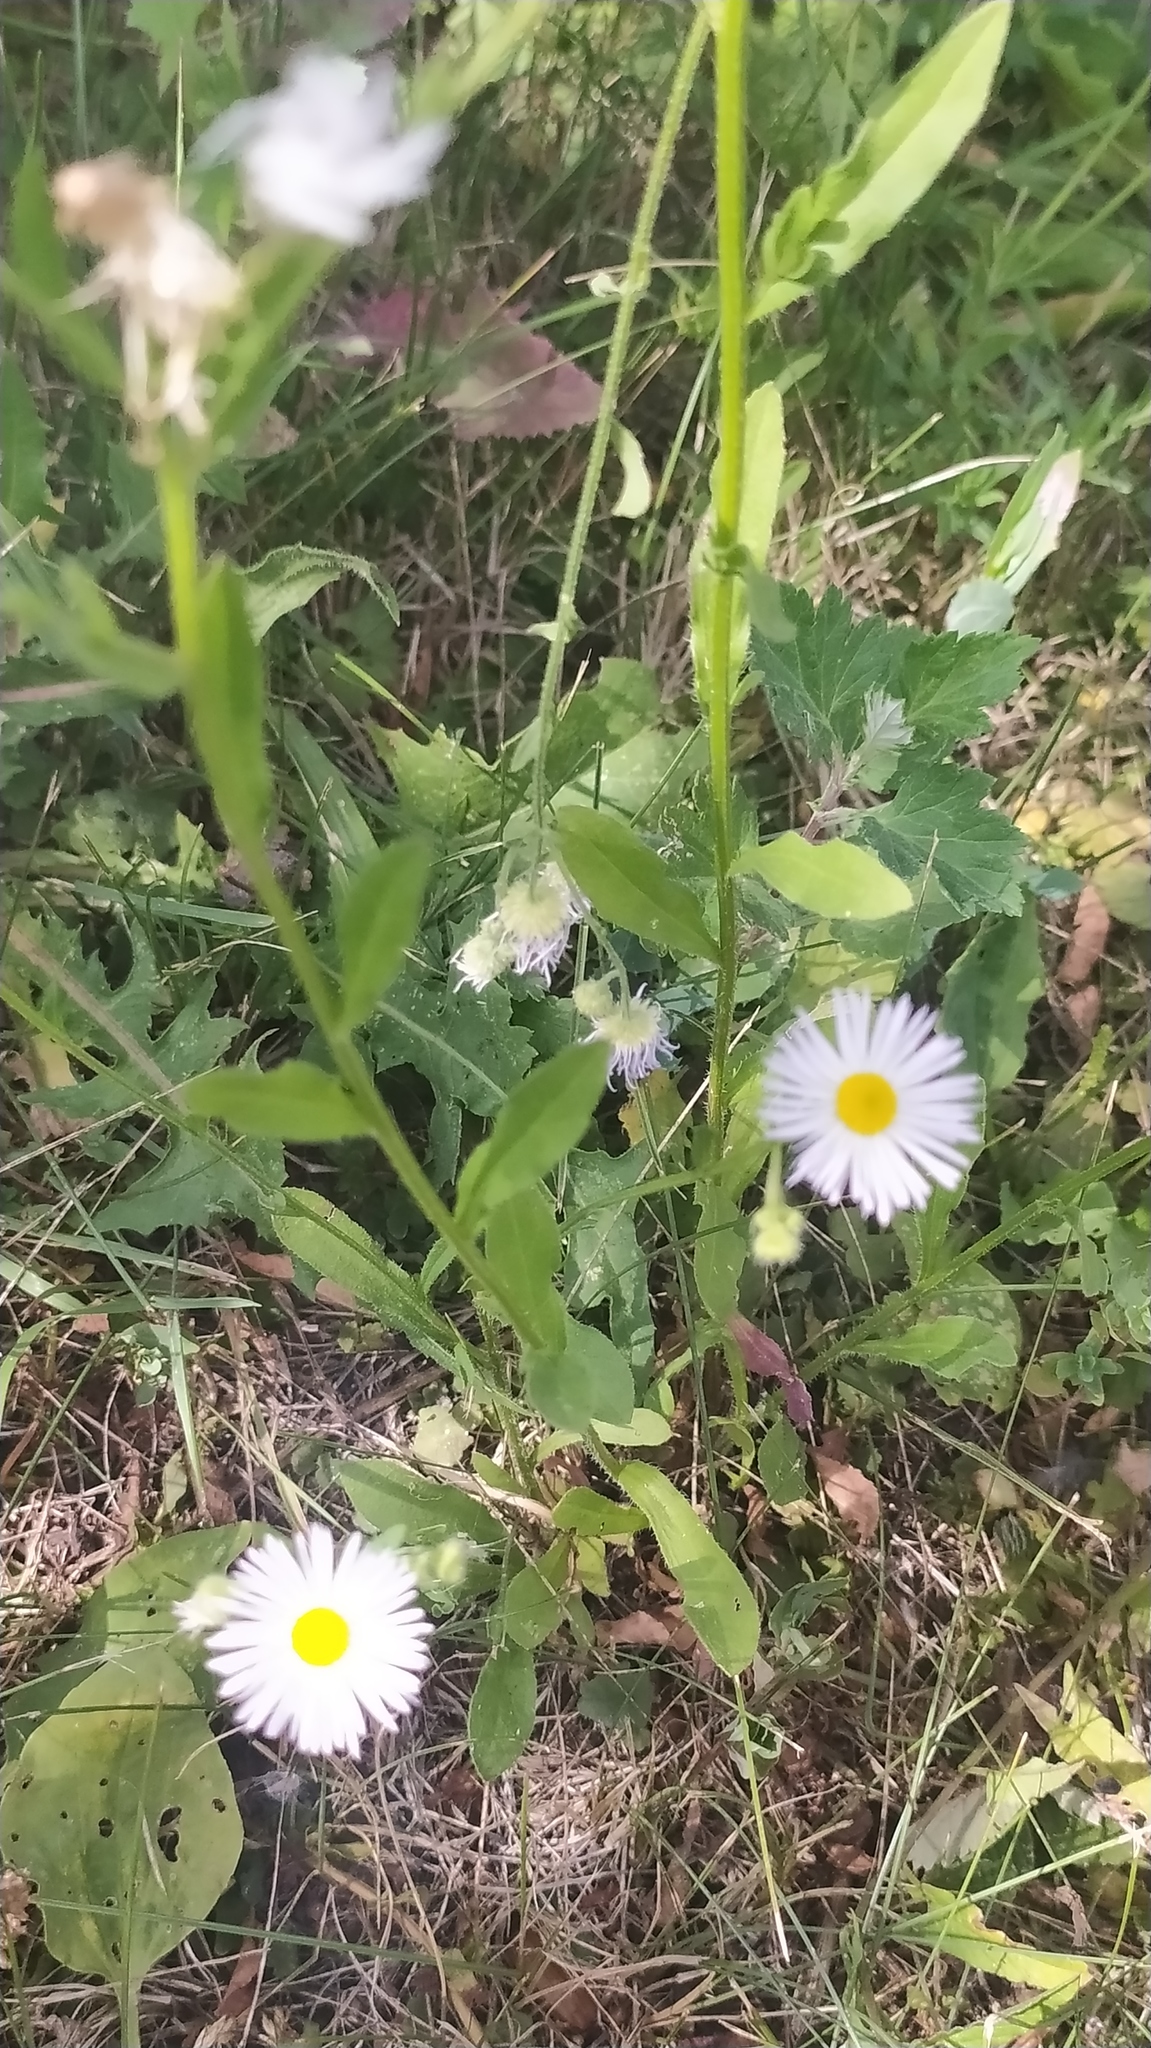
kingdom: Plantae
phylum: Tracheophyta
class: Magnoliopsida
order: Asterales
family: Asteraceae
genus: Erigeron
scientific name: Erigeron annuus
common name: Tall fleabane
